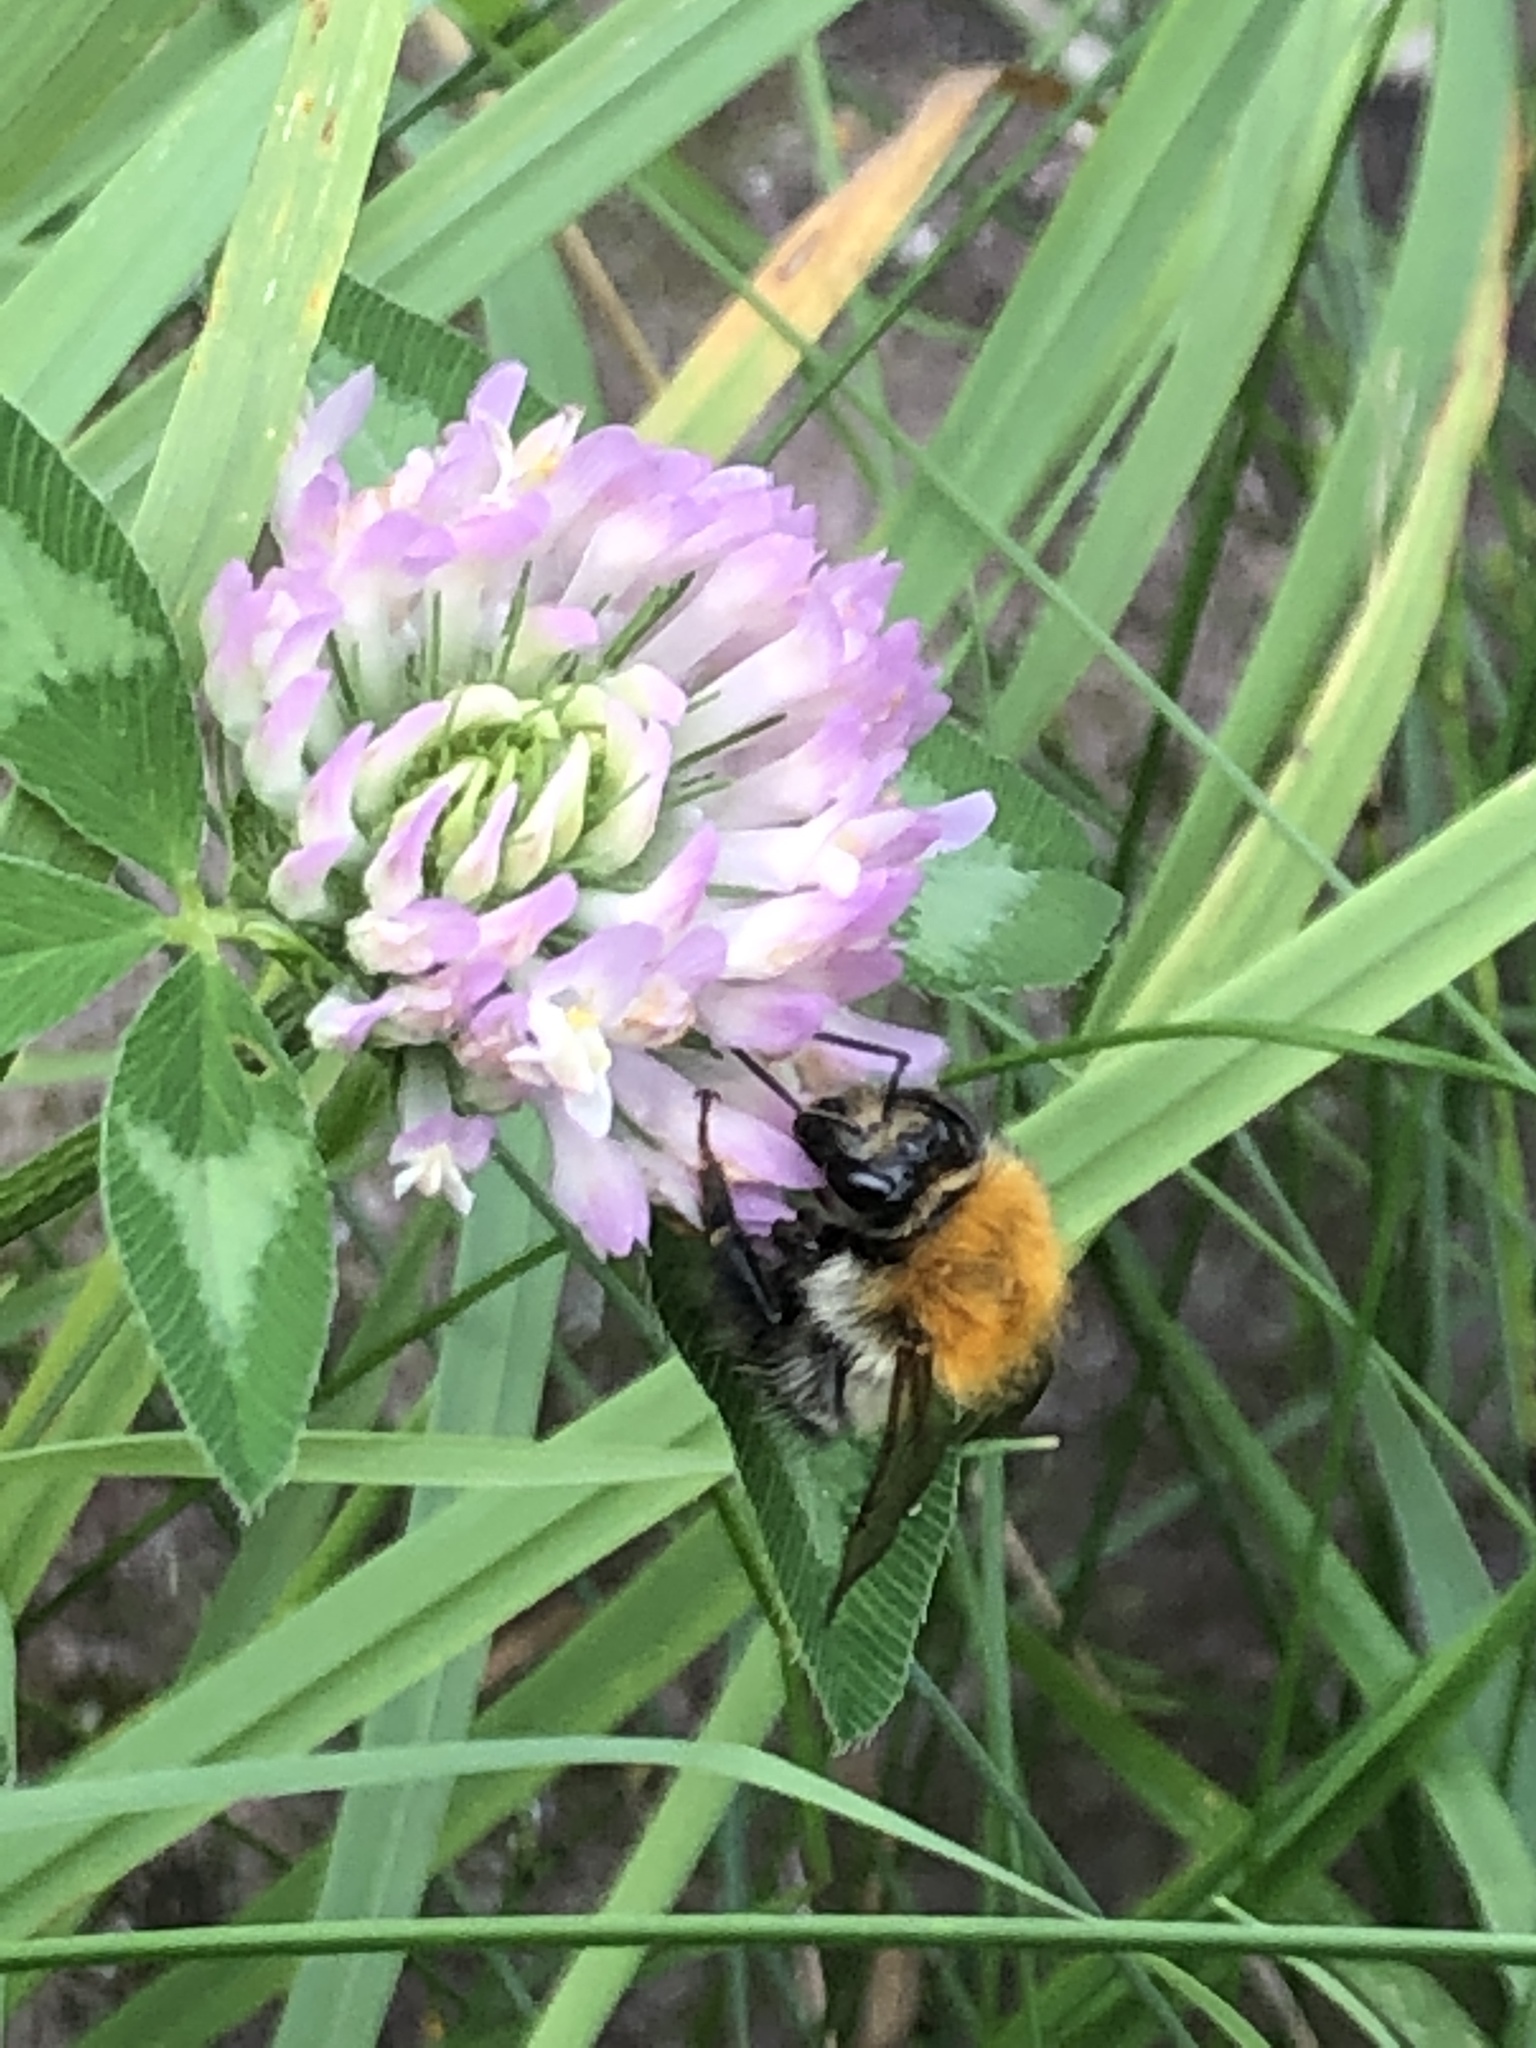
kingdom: Animalia
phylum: Arthropoda
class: Insecta
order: Hymenoptera
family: Apidae
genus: Bombus
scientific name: Bombus pascuorum
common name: Common carder bee
